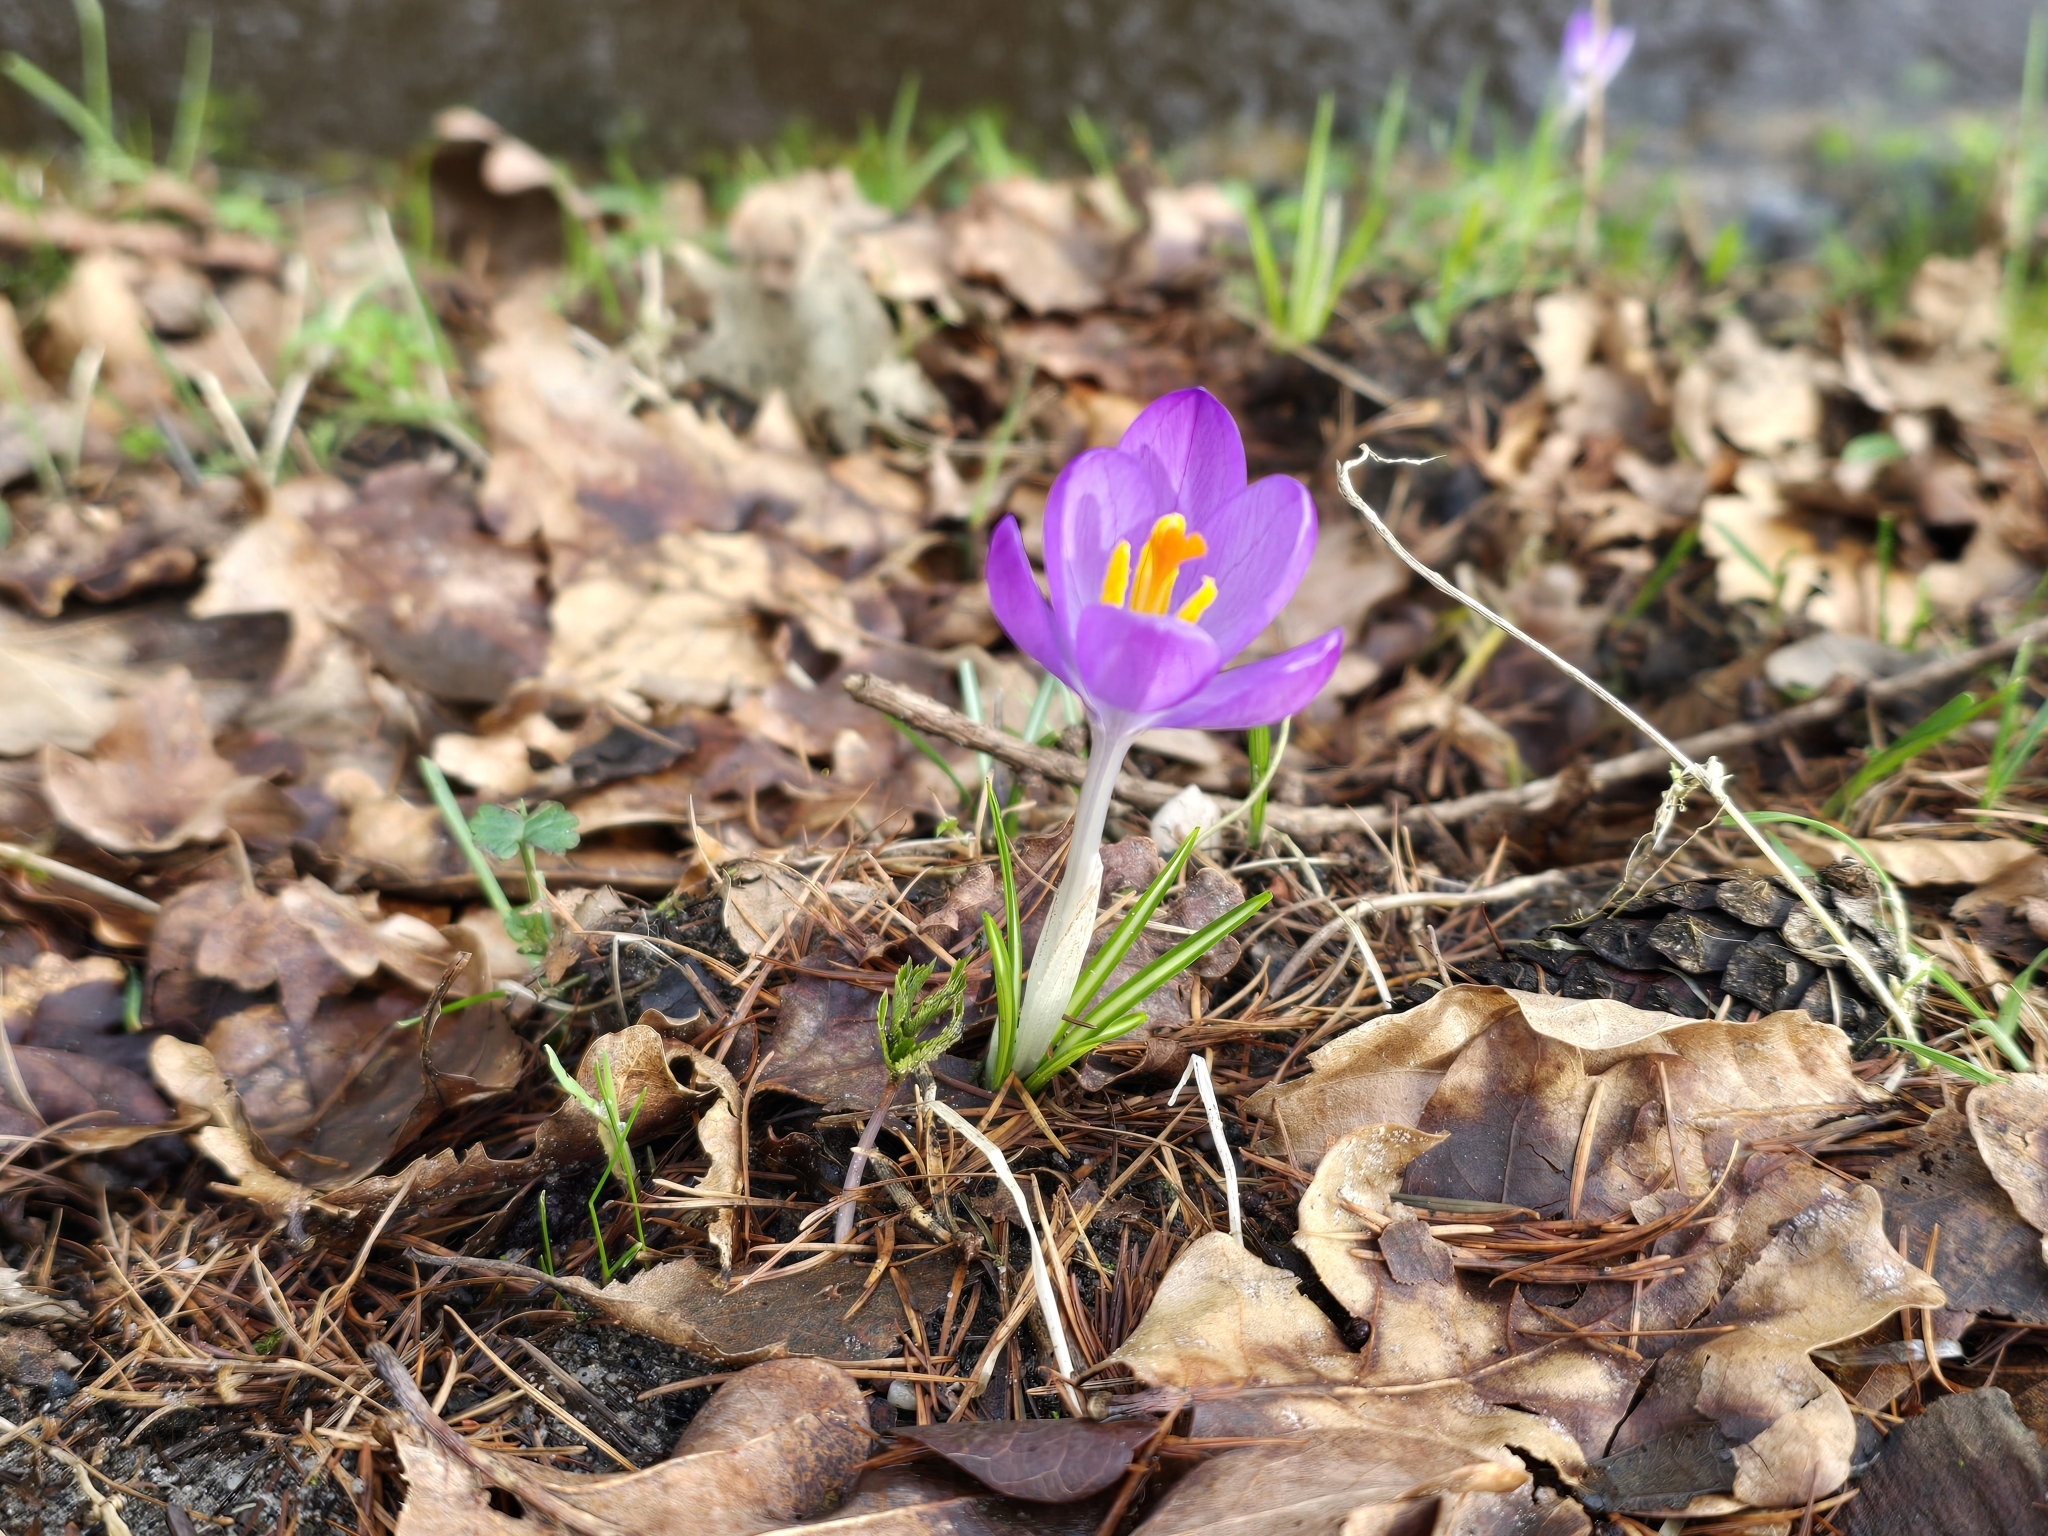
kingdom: Plantae
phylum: Tracheophyta
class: Liliopsida
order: Asparagales
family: Iridaceae
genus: Crocus
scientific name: Crocus tommasinianus
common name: Early crocus
